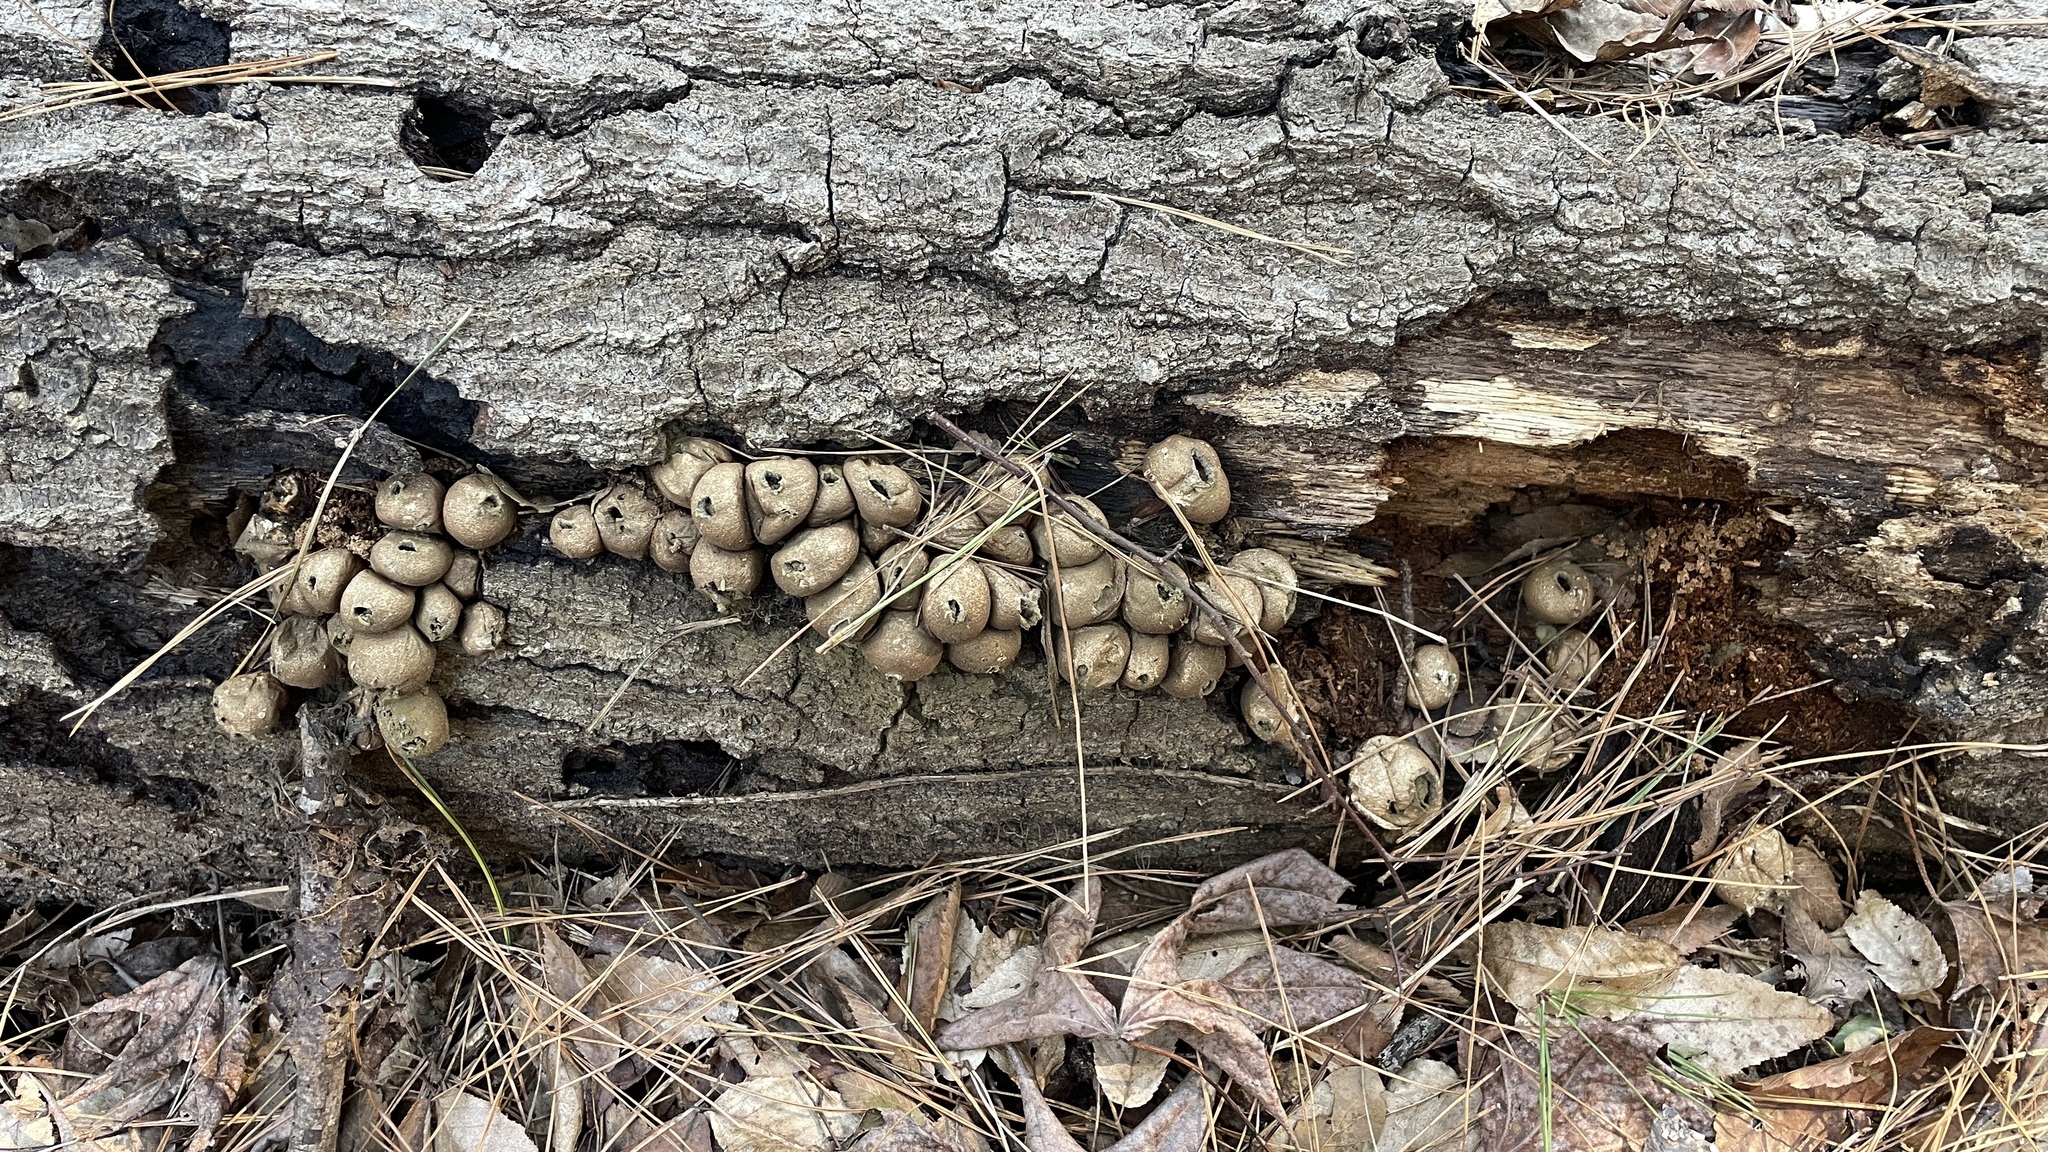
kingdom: Fungi
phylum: Basidiomycota
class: Agaricomycetes
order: Agaricales
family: Lycoperdaceae
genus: Apioperdon
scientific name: Apioperdon pyriforme
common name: Pear-shaped puffball
